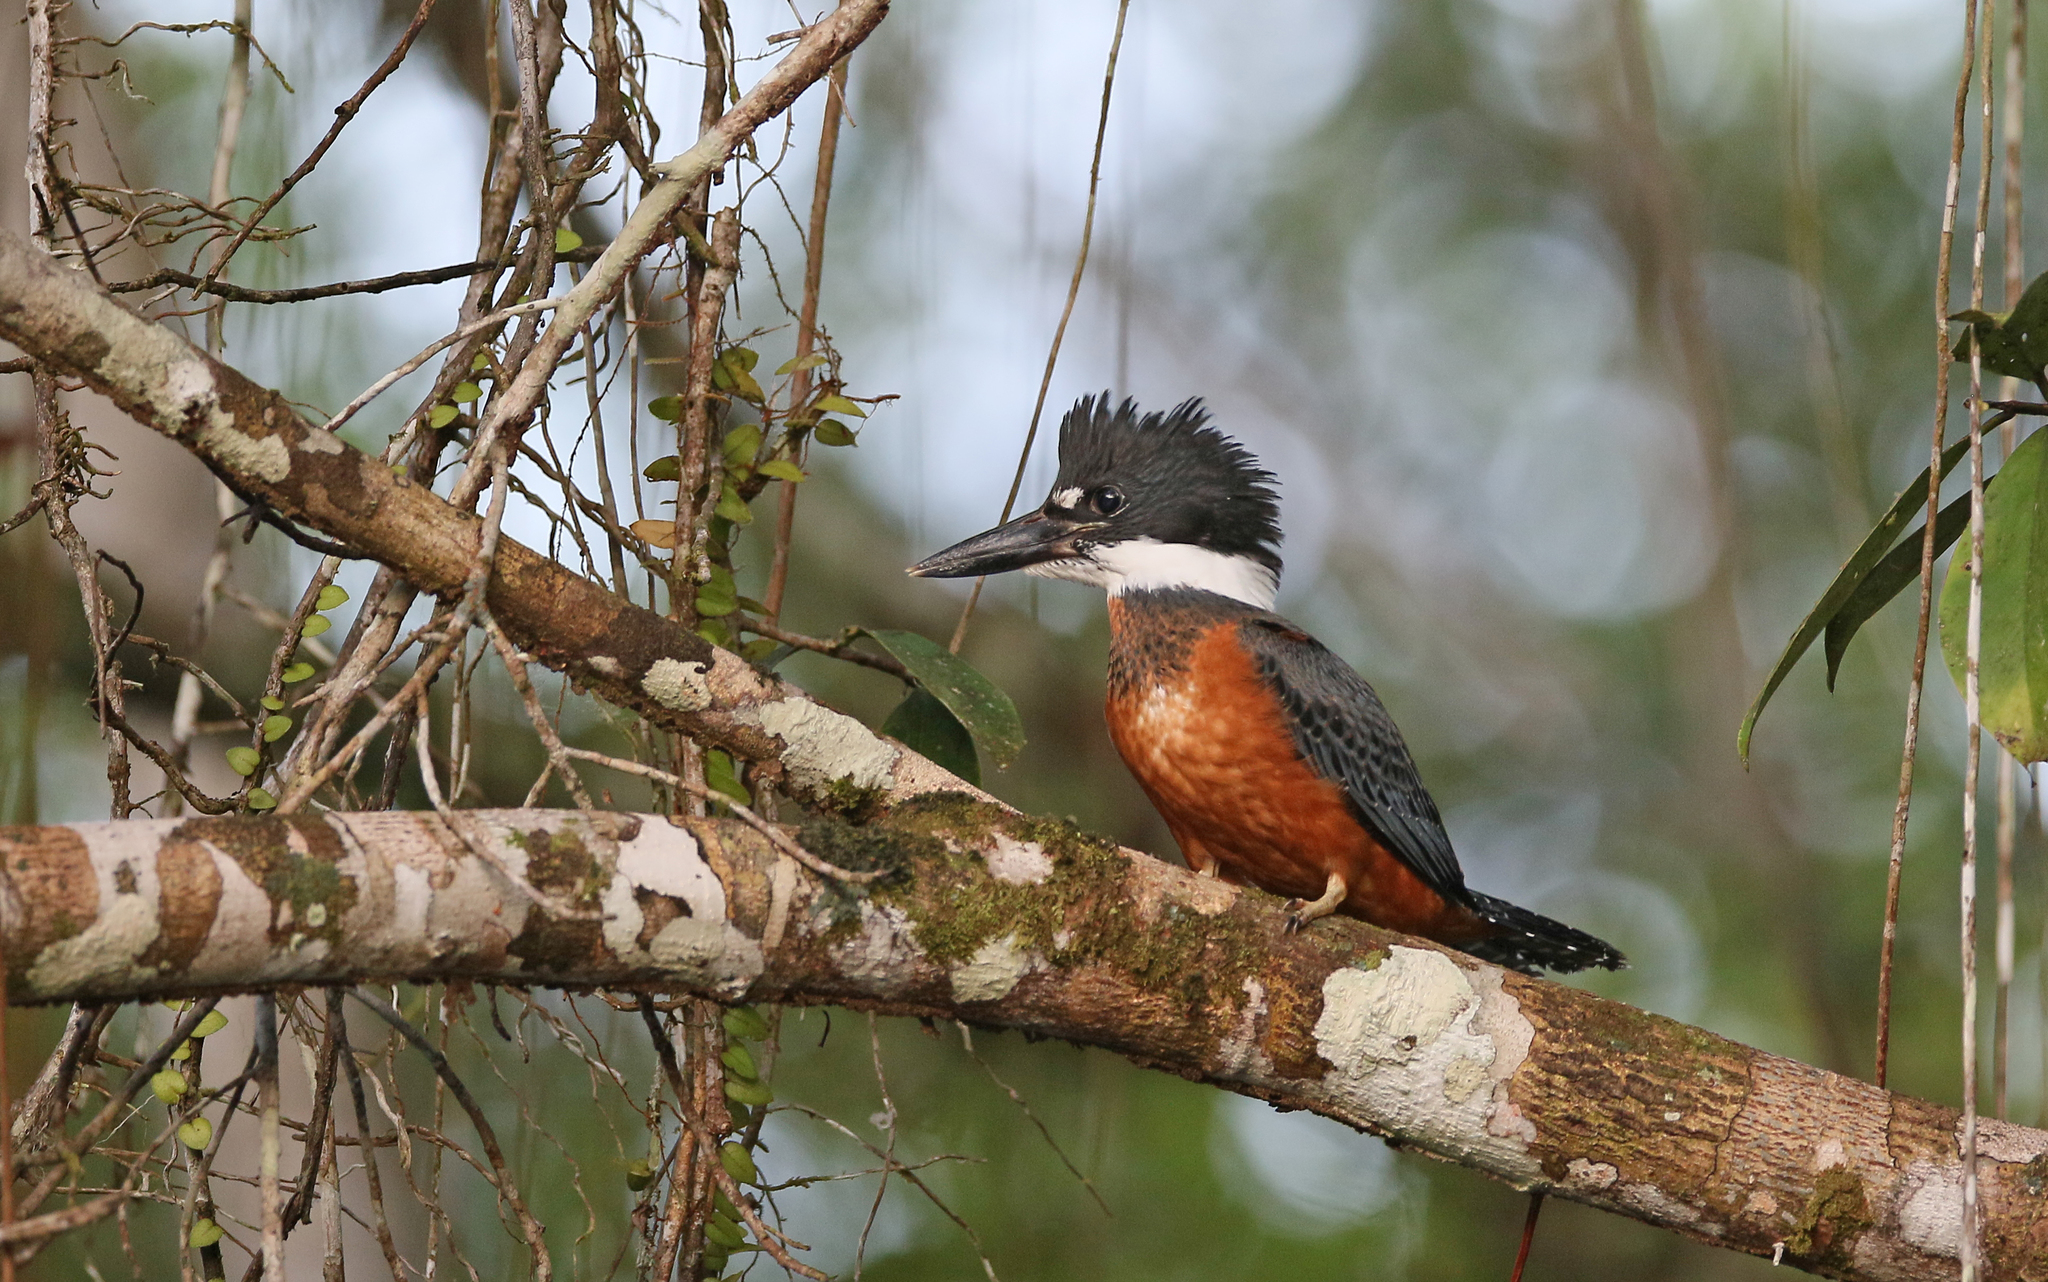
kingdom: Animalia
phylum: Chordata
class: Aves
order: Coraciiformes
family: Alcedinidae
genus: Megaceryle
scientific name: Megaceryle torquata
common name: Ringed kingfisher
